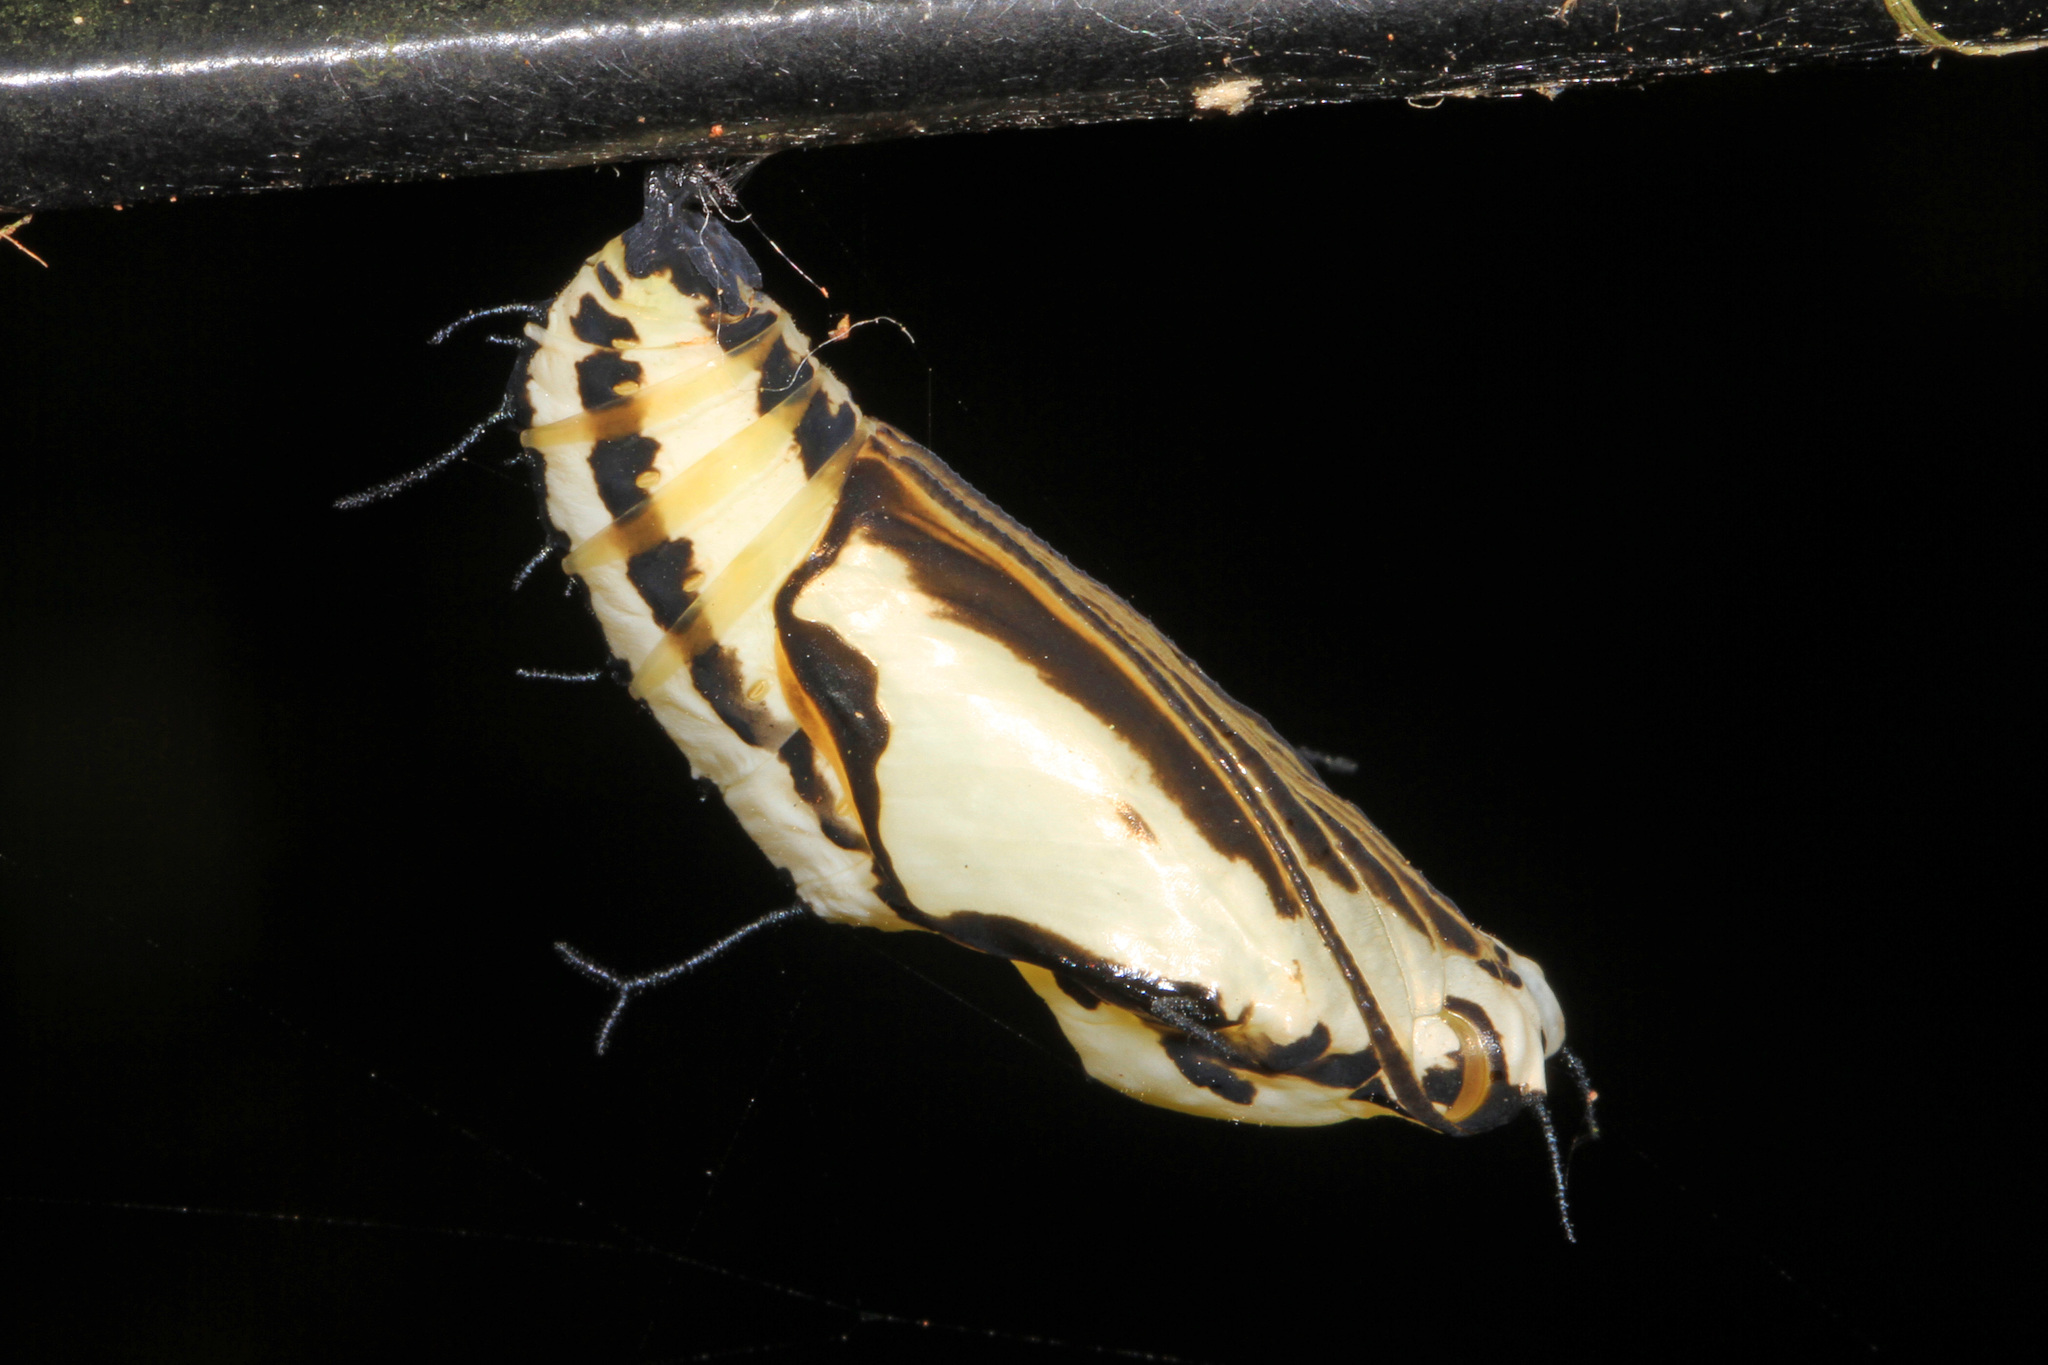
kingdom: Animalia
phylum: Arthropoda
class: Insecta
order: Lepidoptera
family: Nymphalidae
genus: Marpesia
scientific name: Marpesia petreus
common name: Red dagger wing
